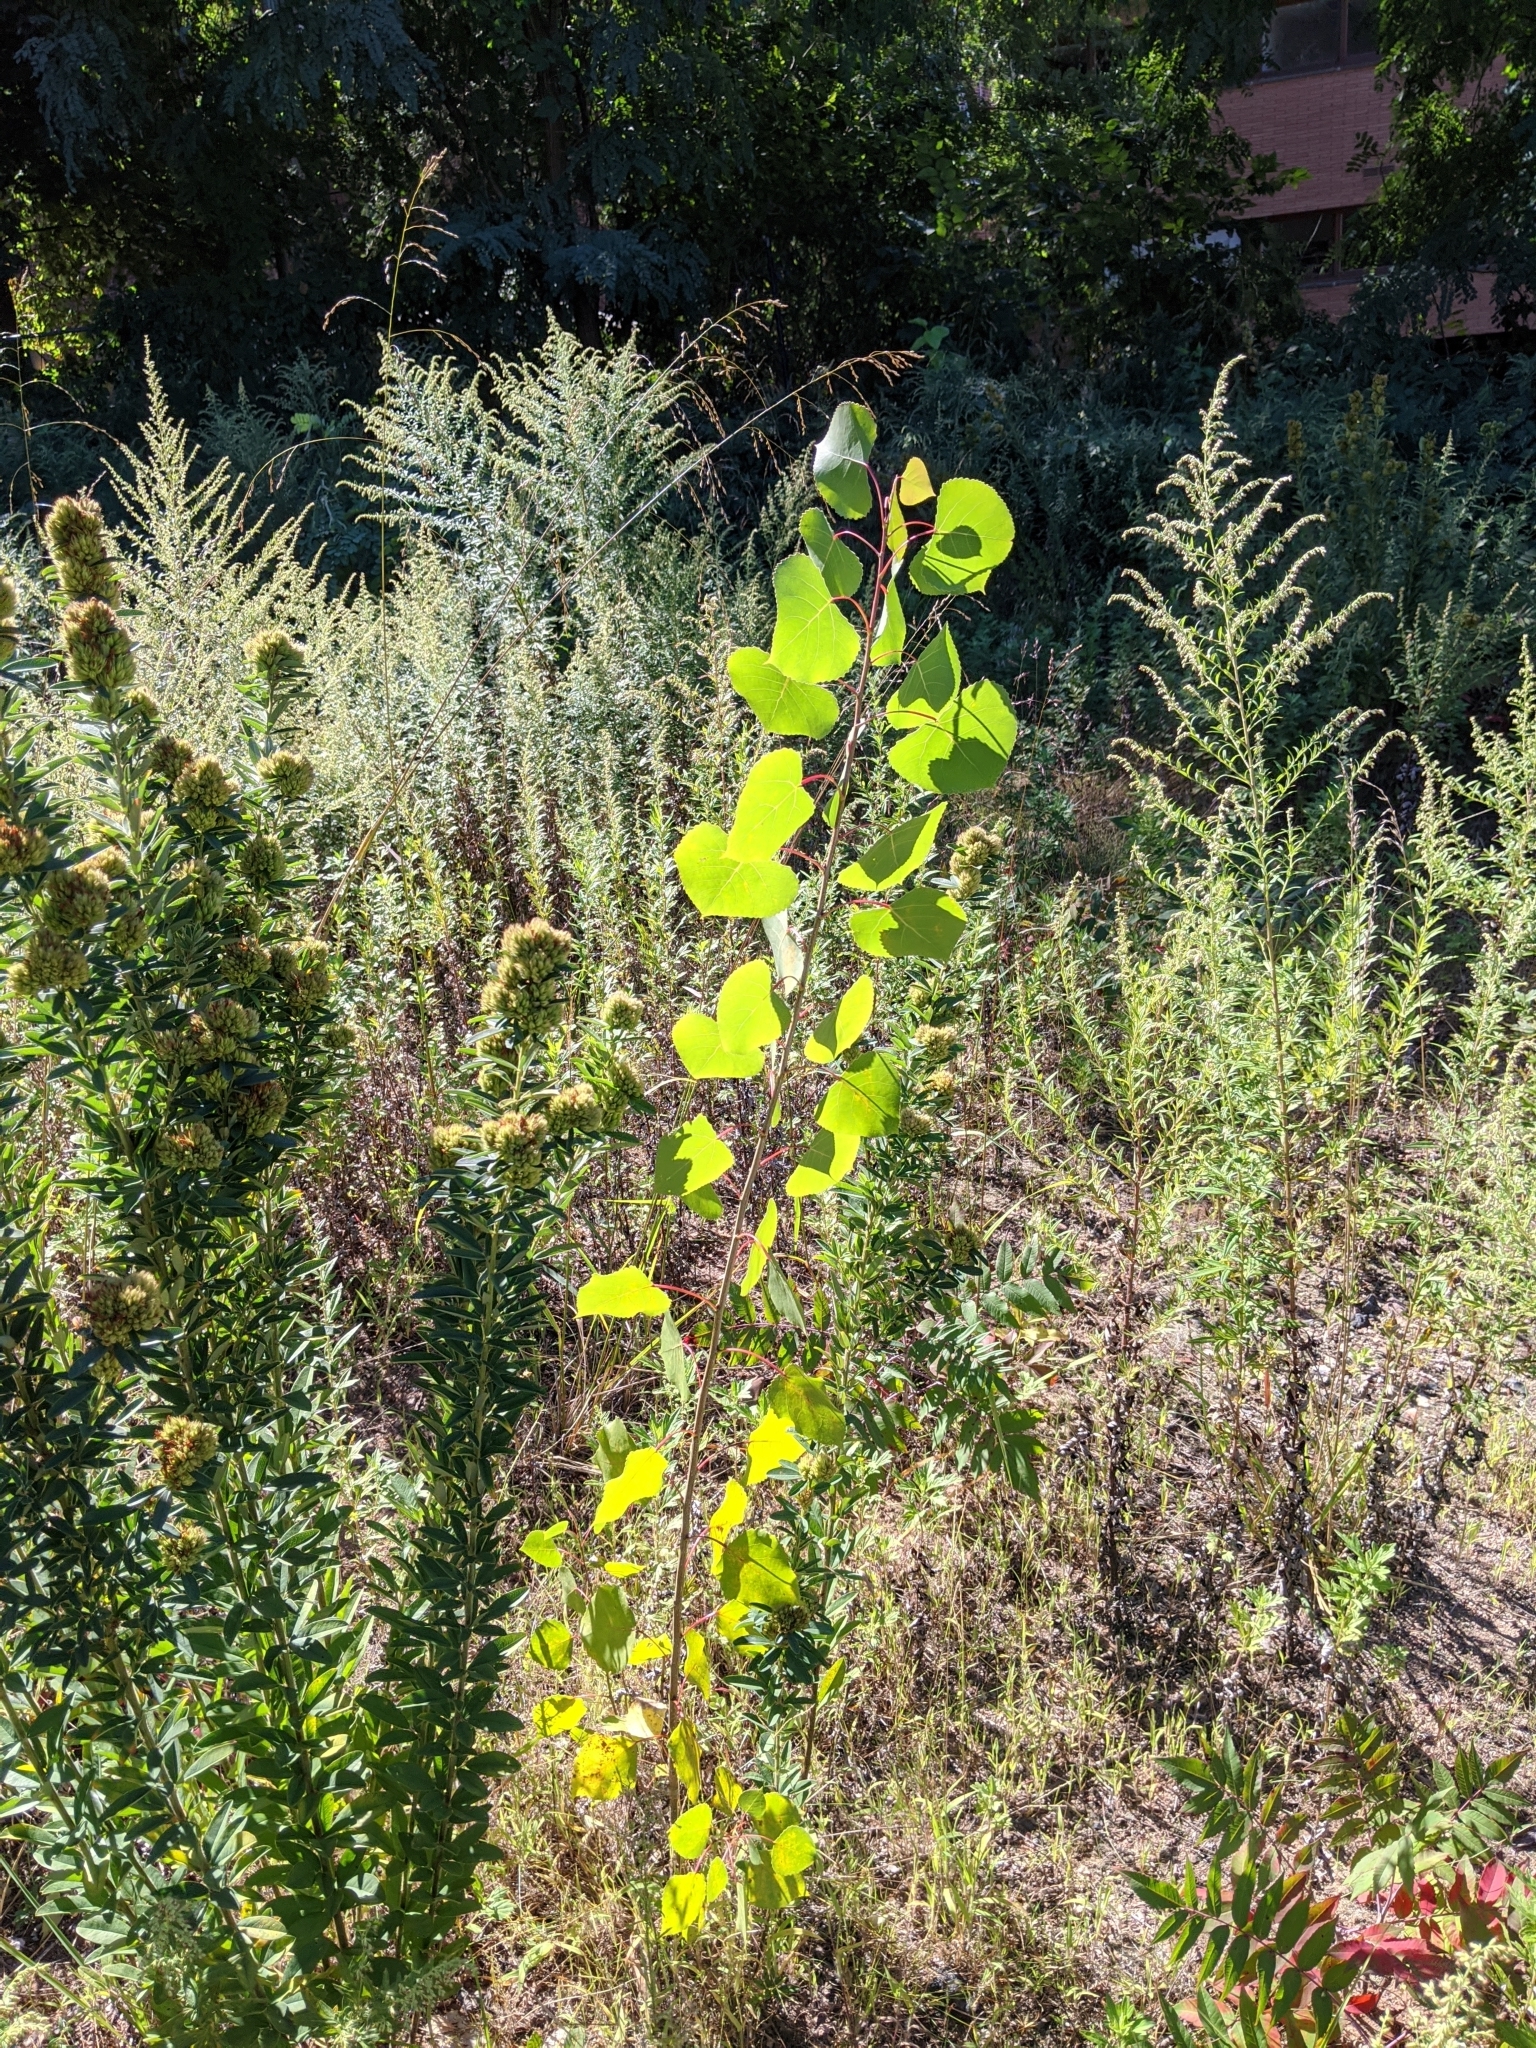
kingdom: Plantae
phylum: Tracheophyta
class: Magnoliopsida
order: Malpighiales
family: Salicaceae
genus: Populus
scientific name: Populus deltoides
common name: Eastern cottonwood
